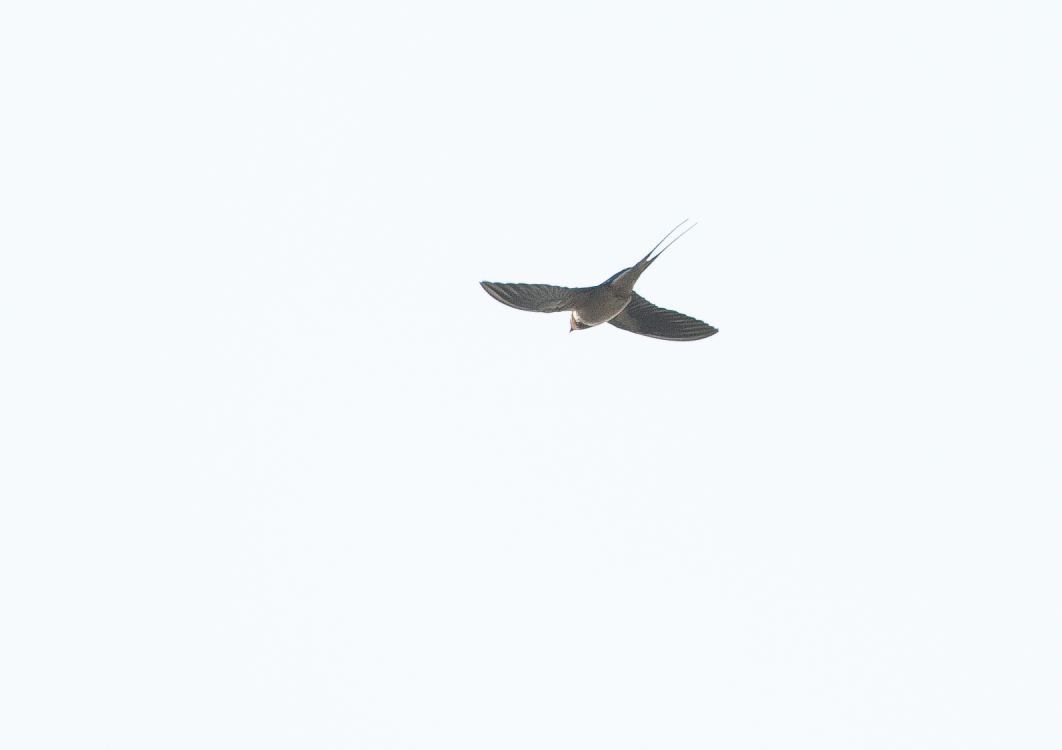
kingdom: Animalia
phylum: Chordata
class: Aves
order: Passeriformes
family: Hirundinidae
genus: Hirundo
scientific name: Hirundo rustica
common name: Barn swallow
